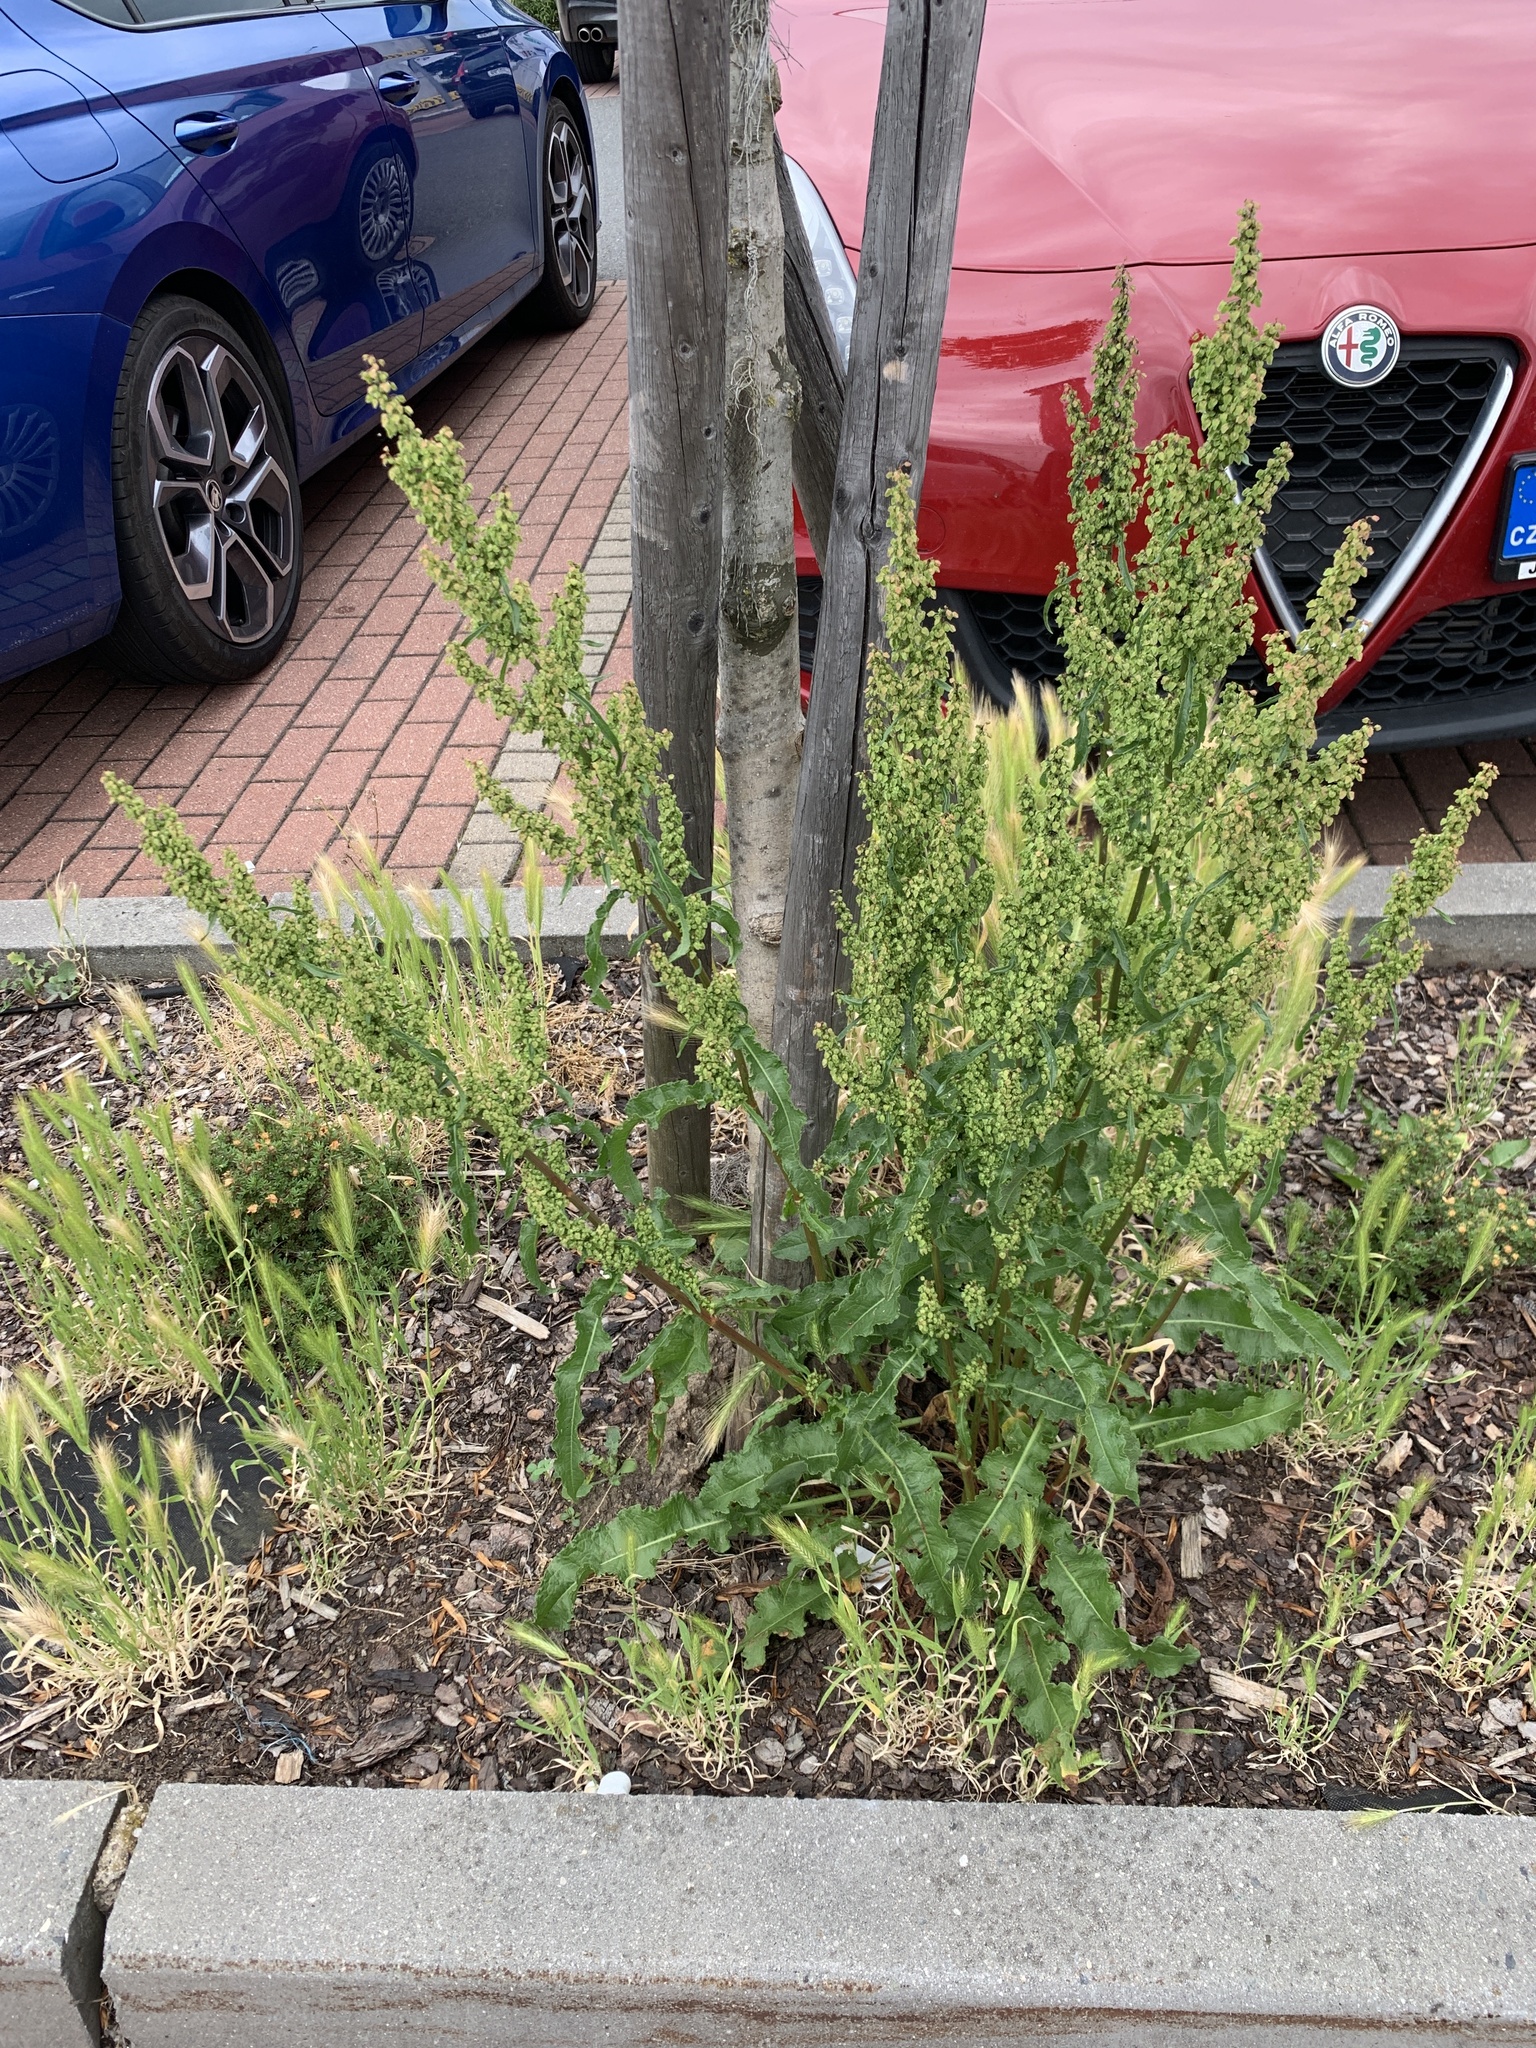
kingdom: Plantae
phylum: Tracheophyta
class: Magnoliopsida
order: Caryophyllales
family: Polygonaceae
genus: Rumex
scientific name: Rumex crispus
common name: Curled dock
